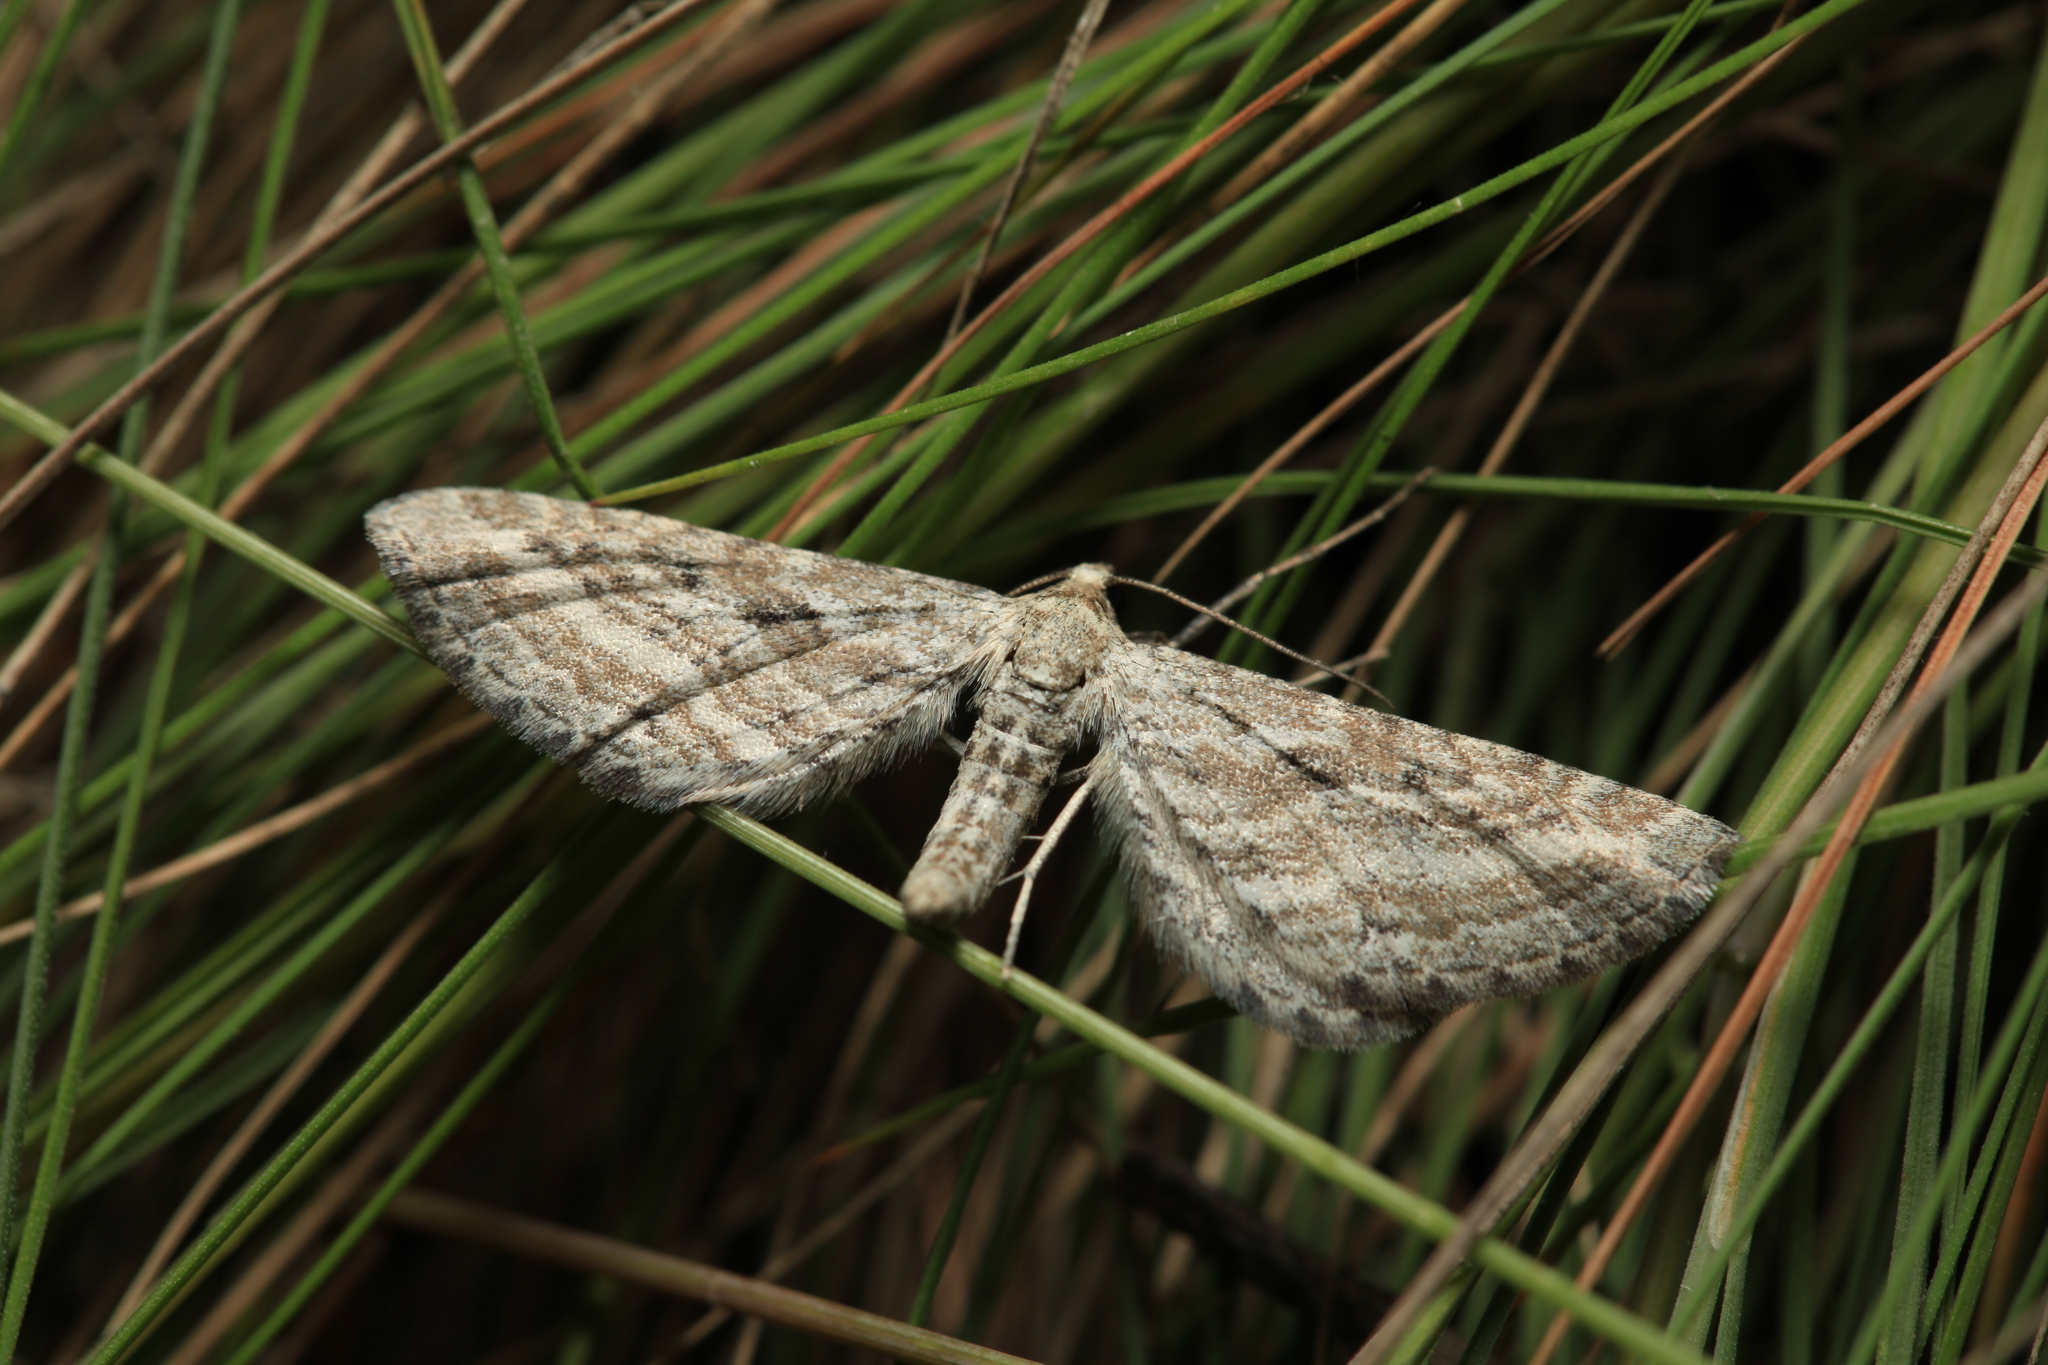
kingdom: Animalia
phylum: Arthropoda
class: Insecta
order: Lepidoptera
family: Geometridae
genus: Eupithecia
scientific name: Eupithecia extensaria
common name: Scarce pug
